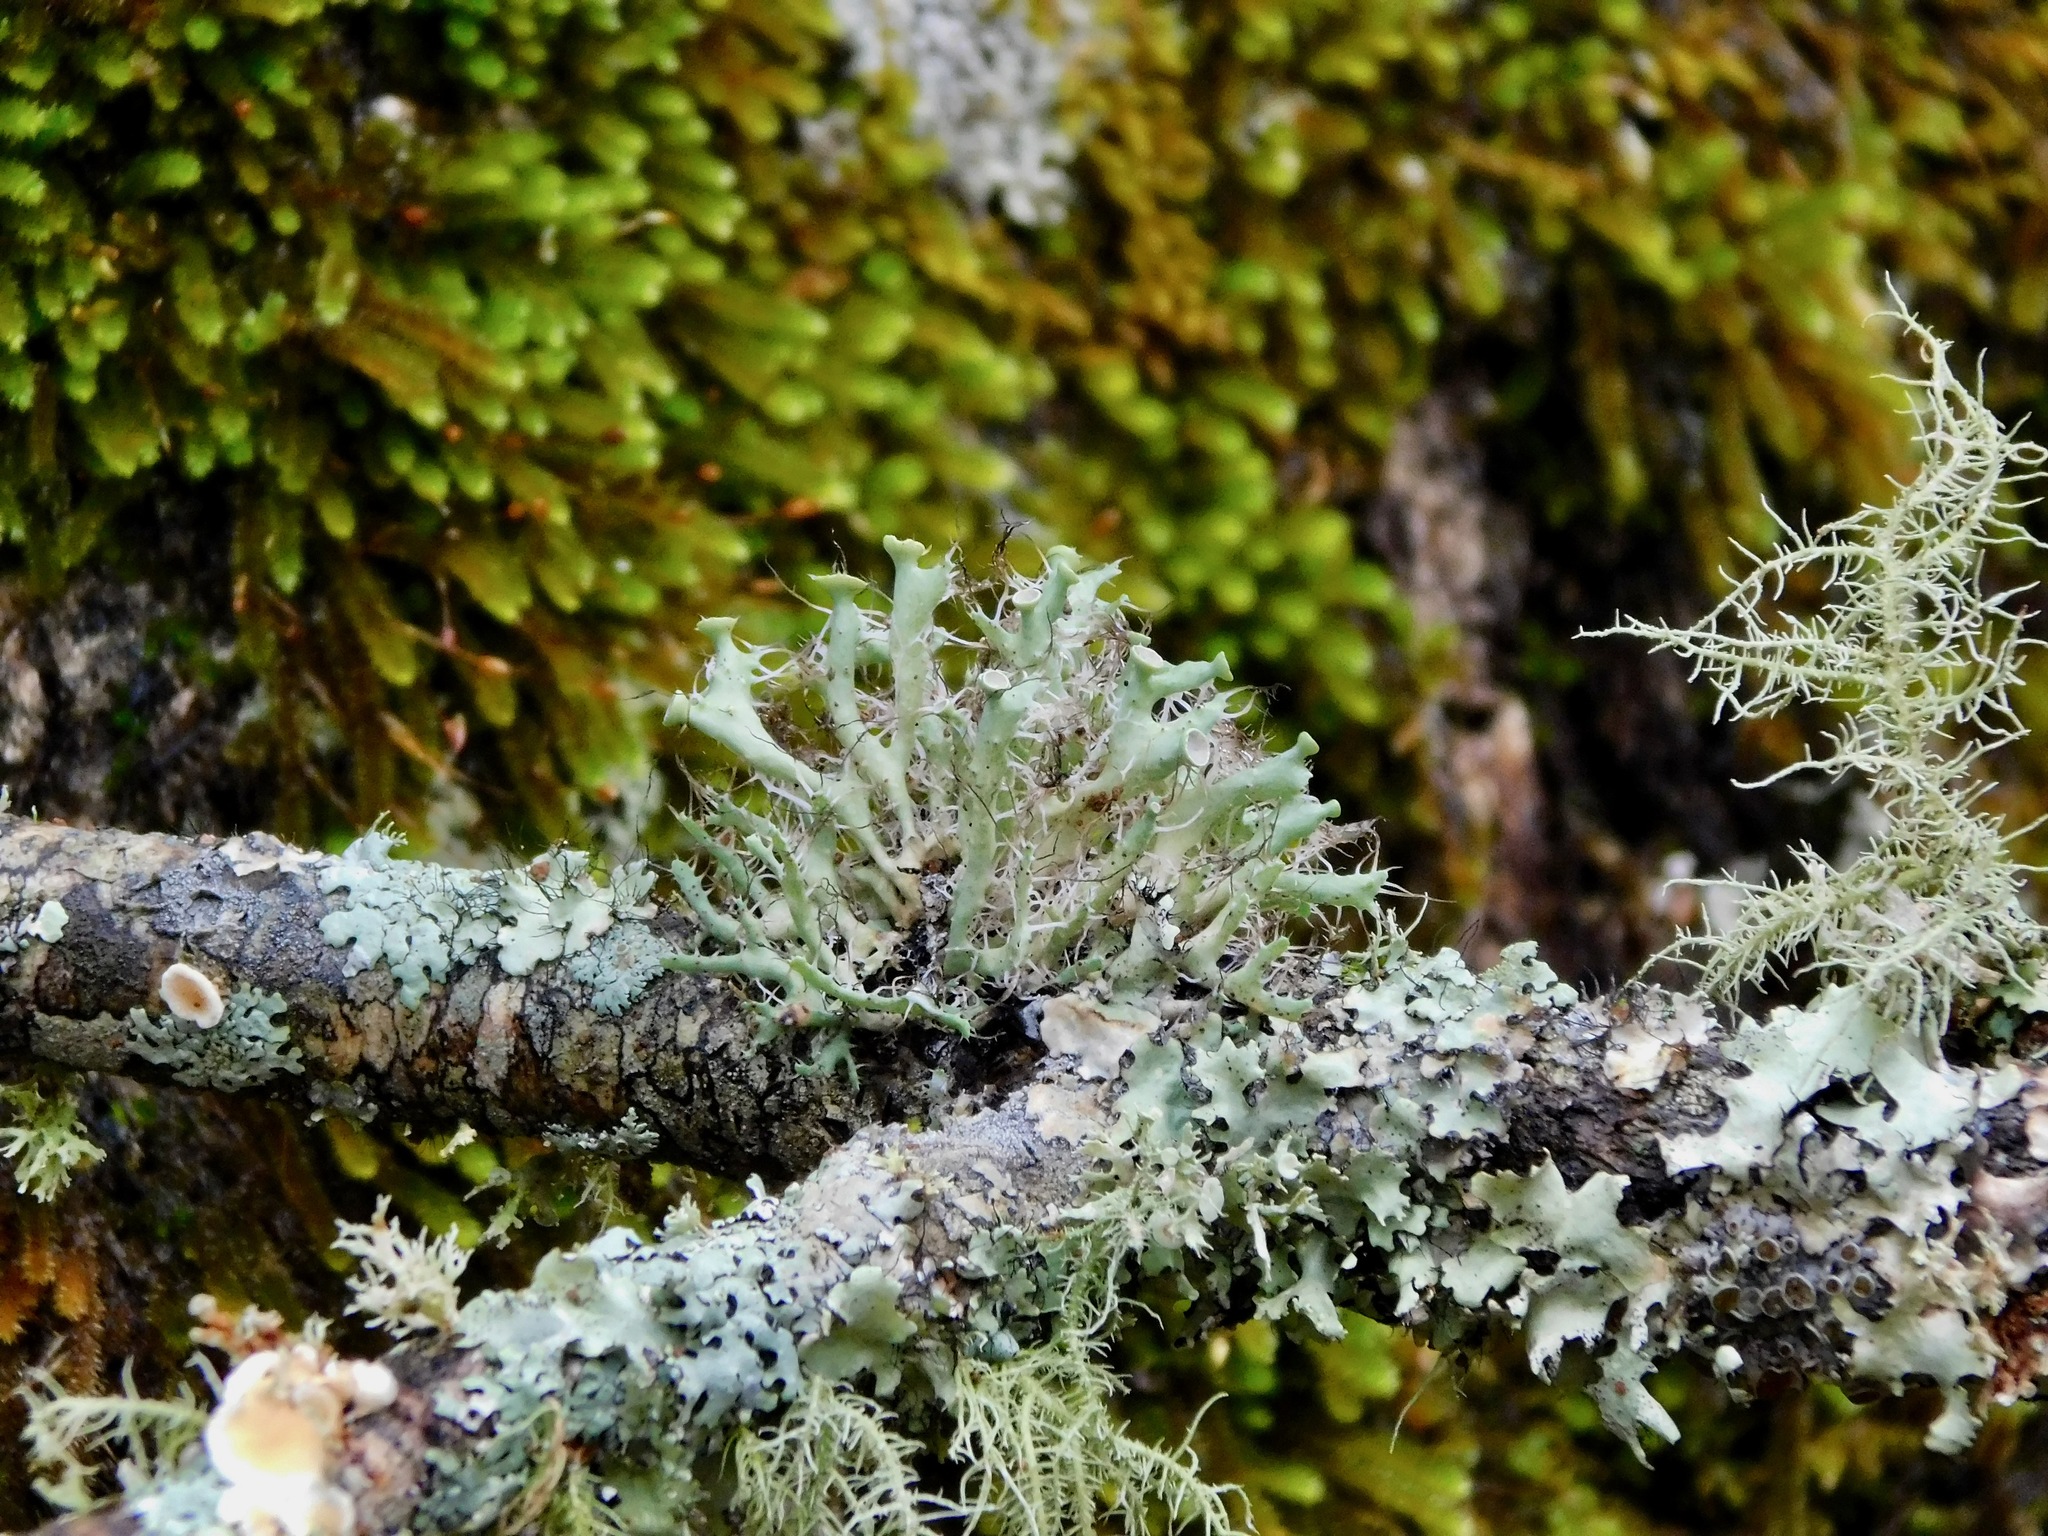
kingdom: Fungi
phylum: Ascomycota
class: Lecanoromycetes
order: Caliciales
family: Physciaceae
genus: Heterodermia
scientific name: Heterodermia echinata
